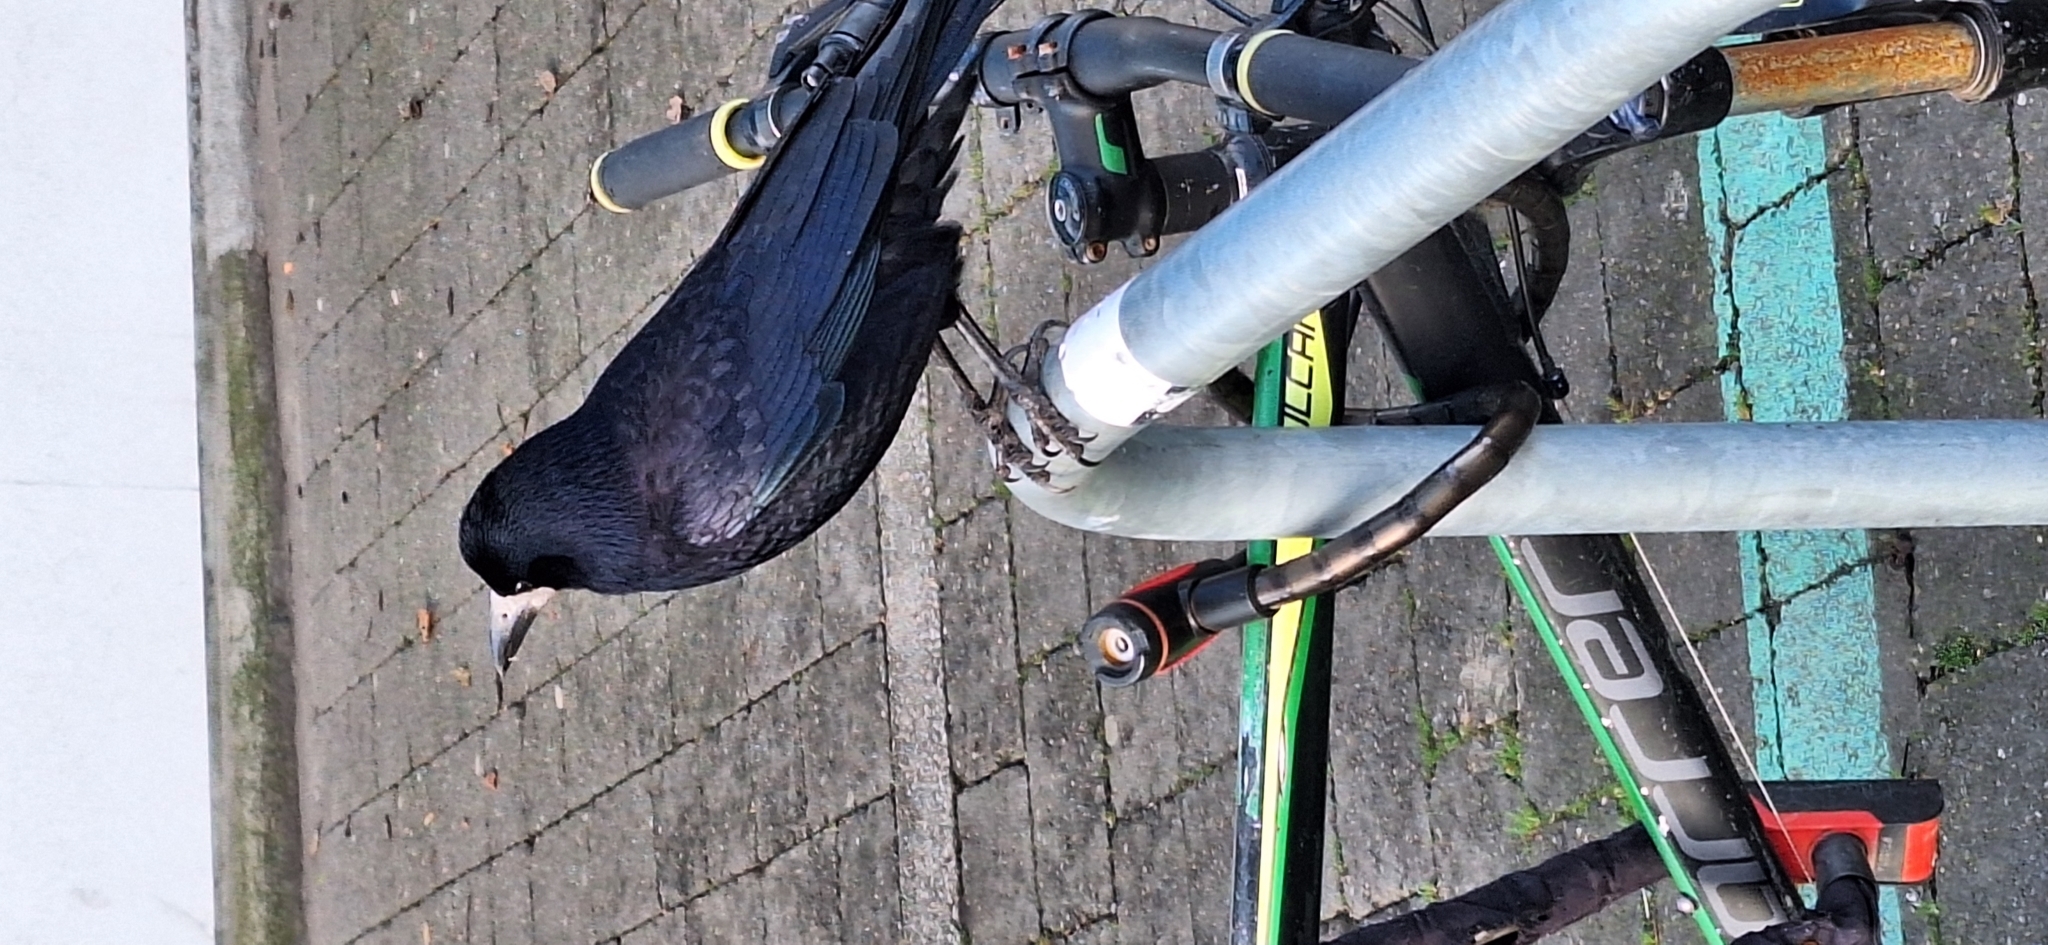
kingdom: Animalia
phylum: Chordata
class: Aves
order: Passeriformes
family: Corvidae
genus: Corvus
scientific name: Corvus frugilegus
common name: Rook
